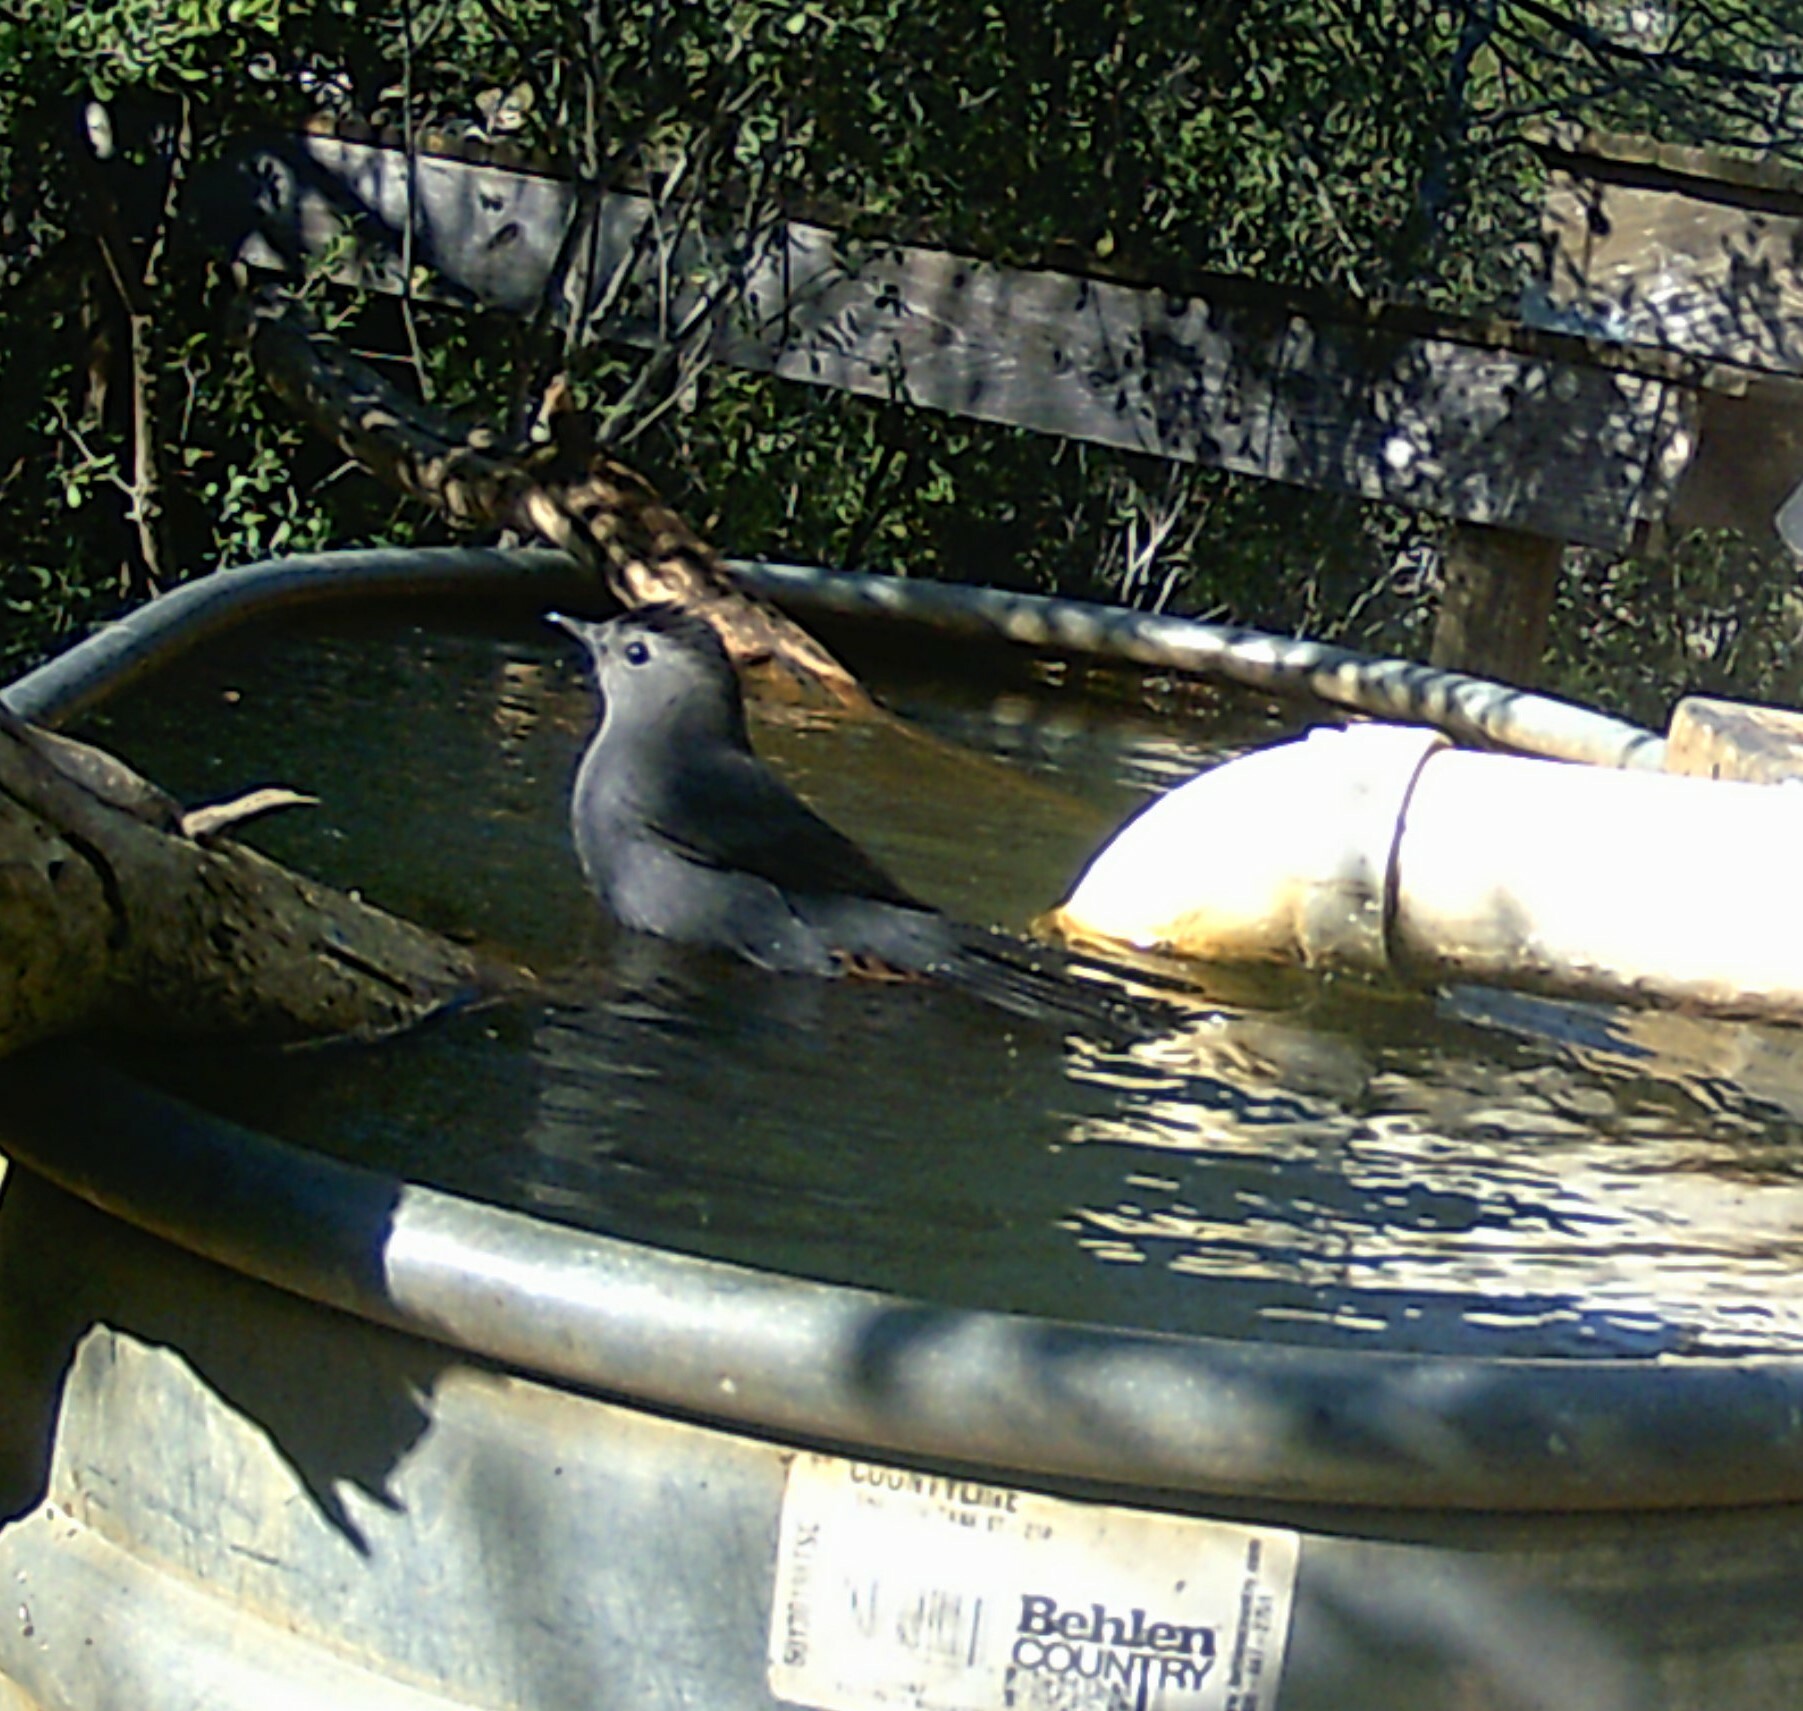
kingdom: Animalia
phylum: Chordata
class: Aves
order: Passeriformes
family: Mimidae
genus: Dumetella
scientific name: Dumetella carolinensis
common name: Gray catbird
